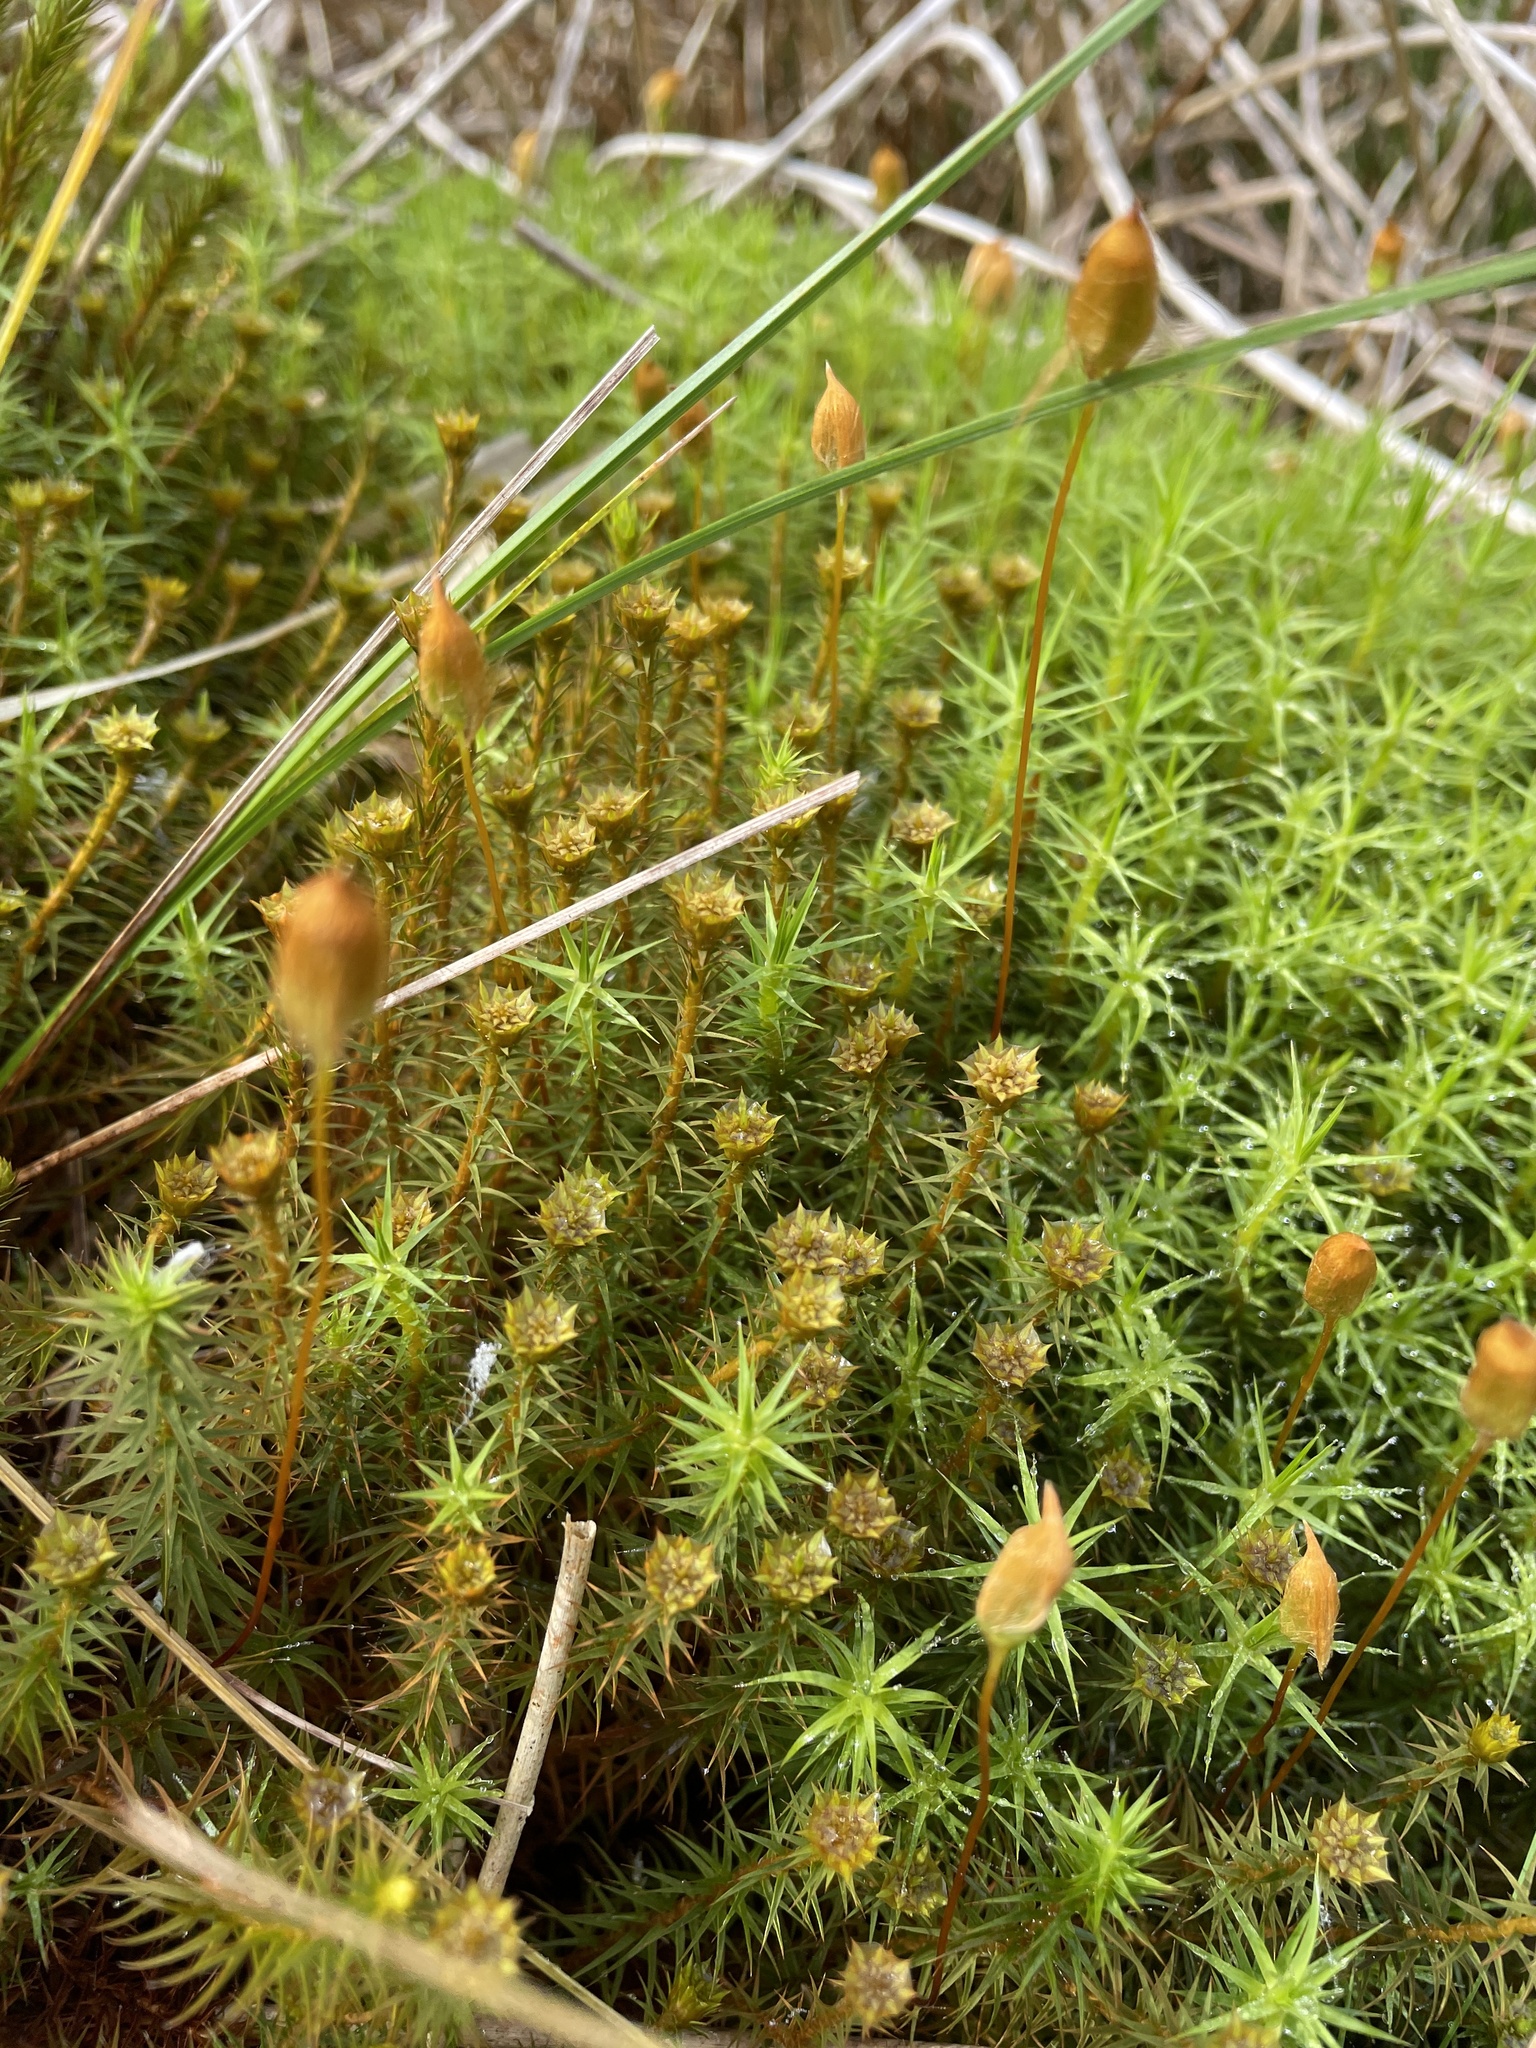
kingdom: Plantae
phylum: Bryophyta
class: Polytrichopsida
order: Polytrichales
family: Polytrichaceae
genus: Polytrichum
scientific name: Polytrichum commune
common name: Common haircap
